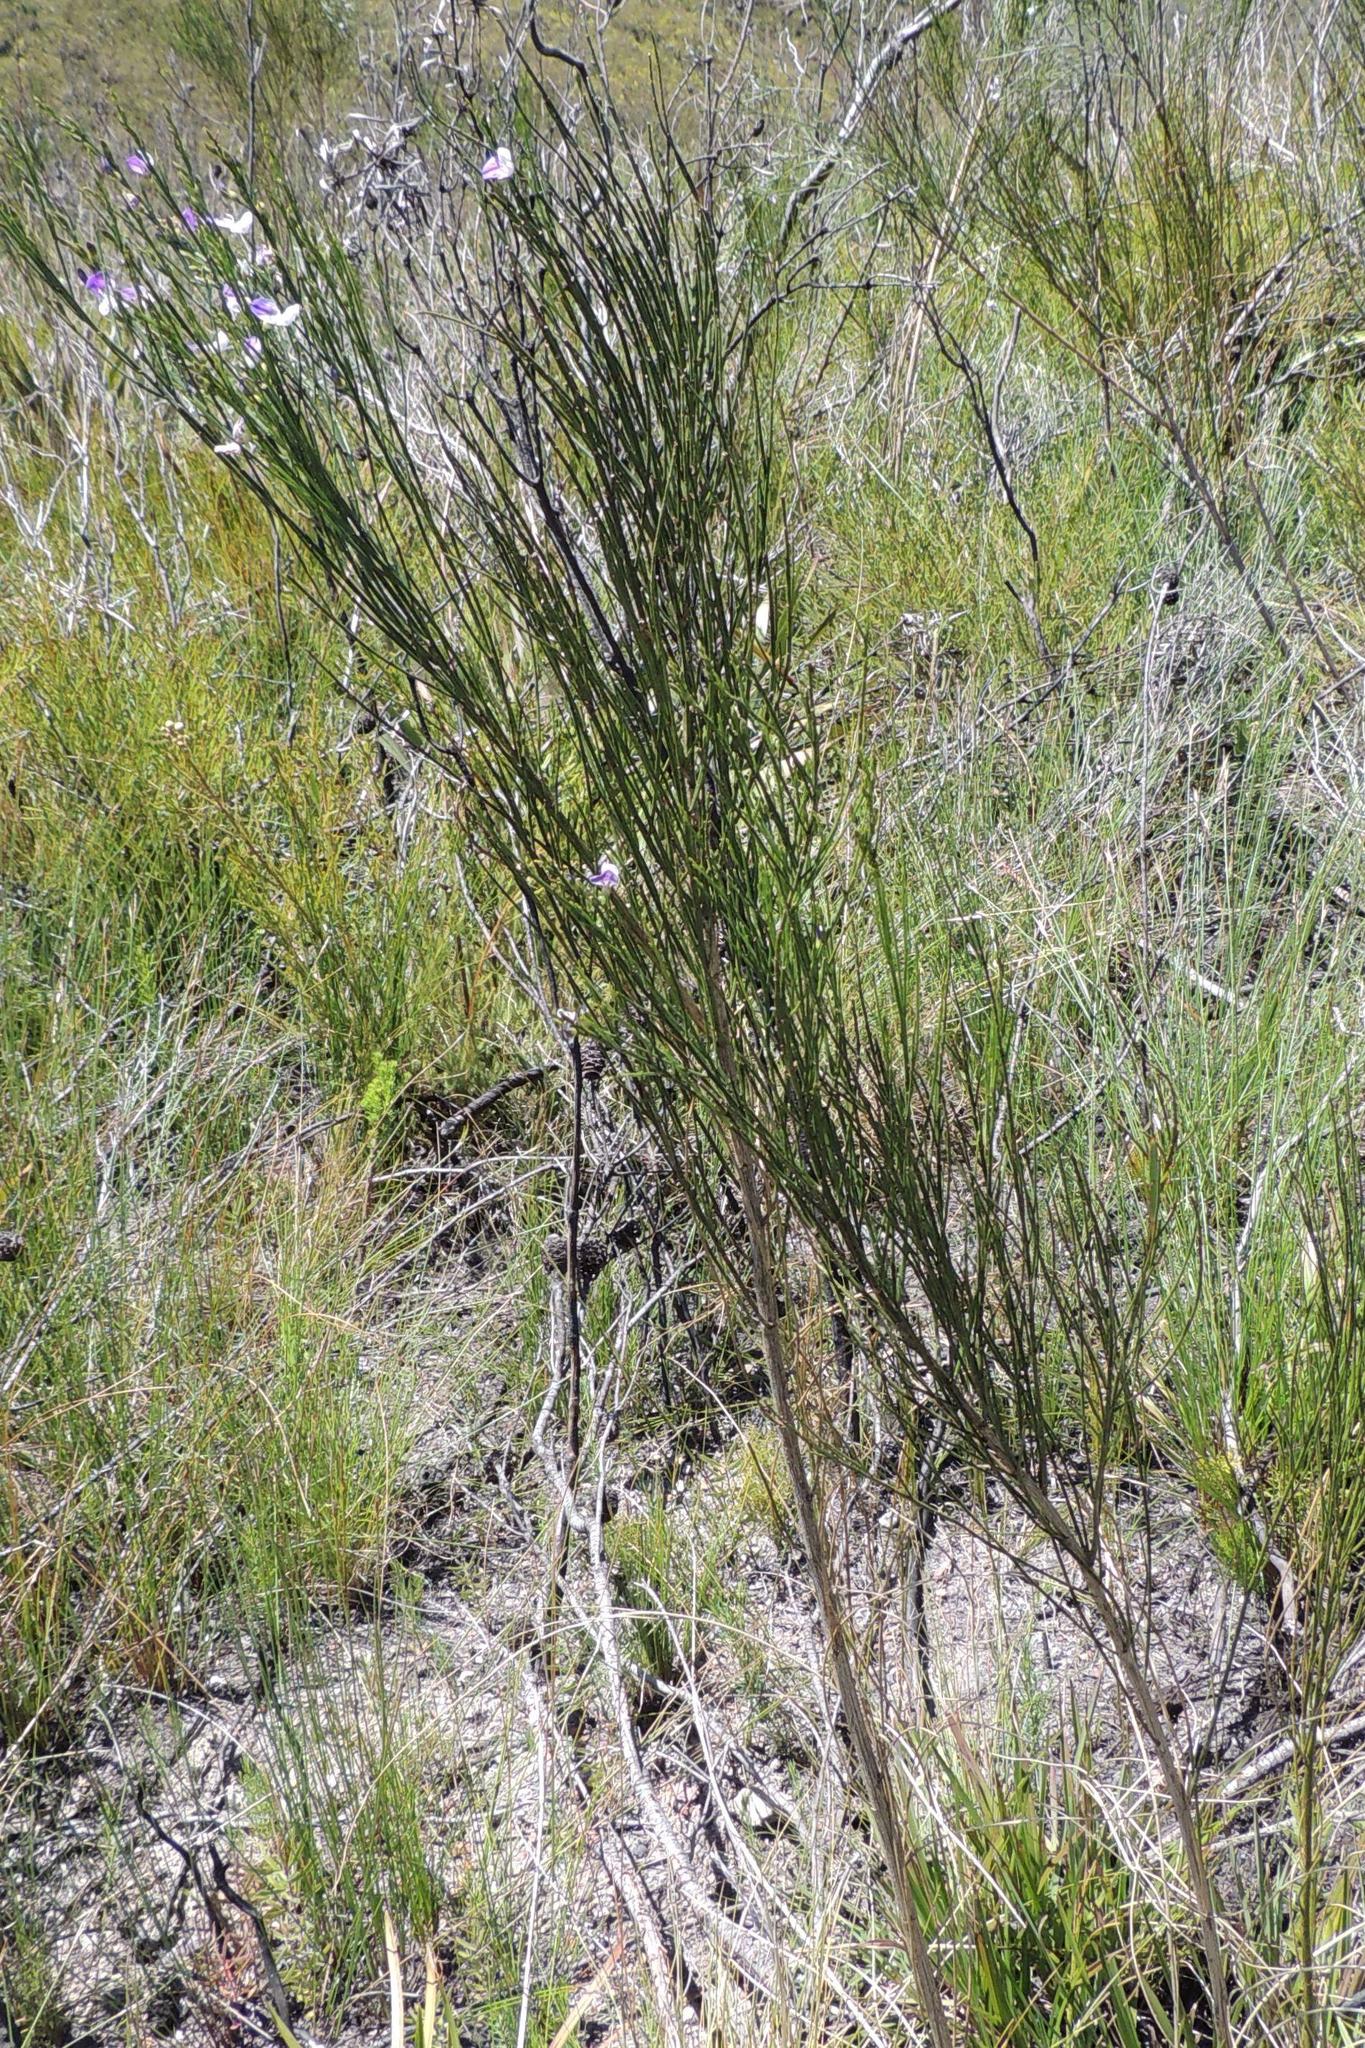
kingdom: Plantae
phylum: Tracheophyta
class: Magnoliopsida
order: Fabales
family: Fabaceae
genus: Psoralea
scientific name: Psoralea usitata
